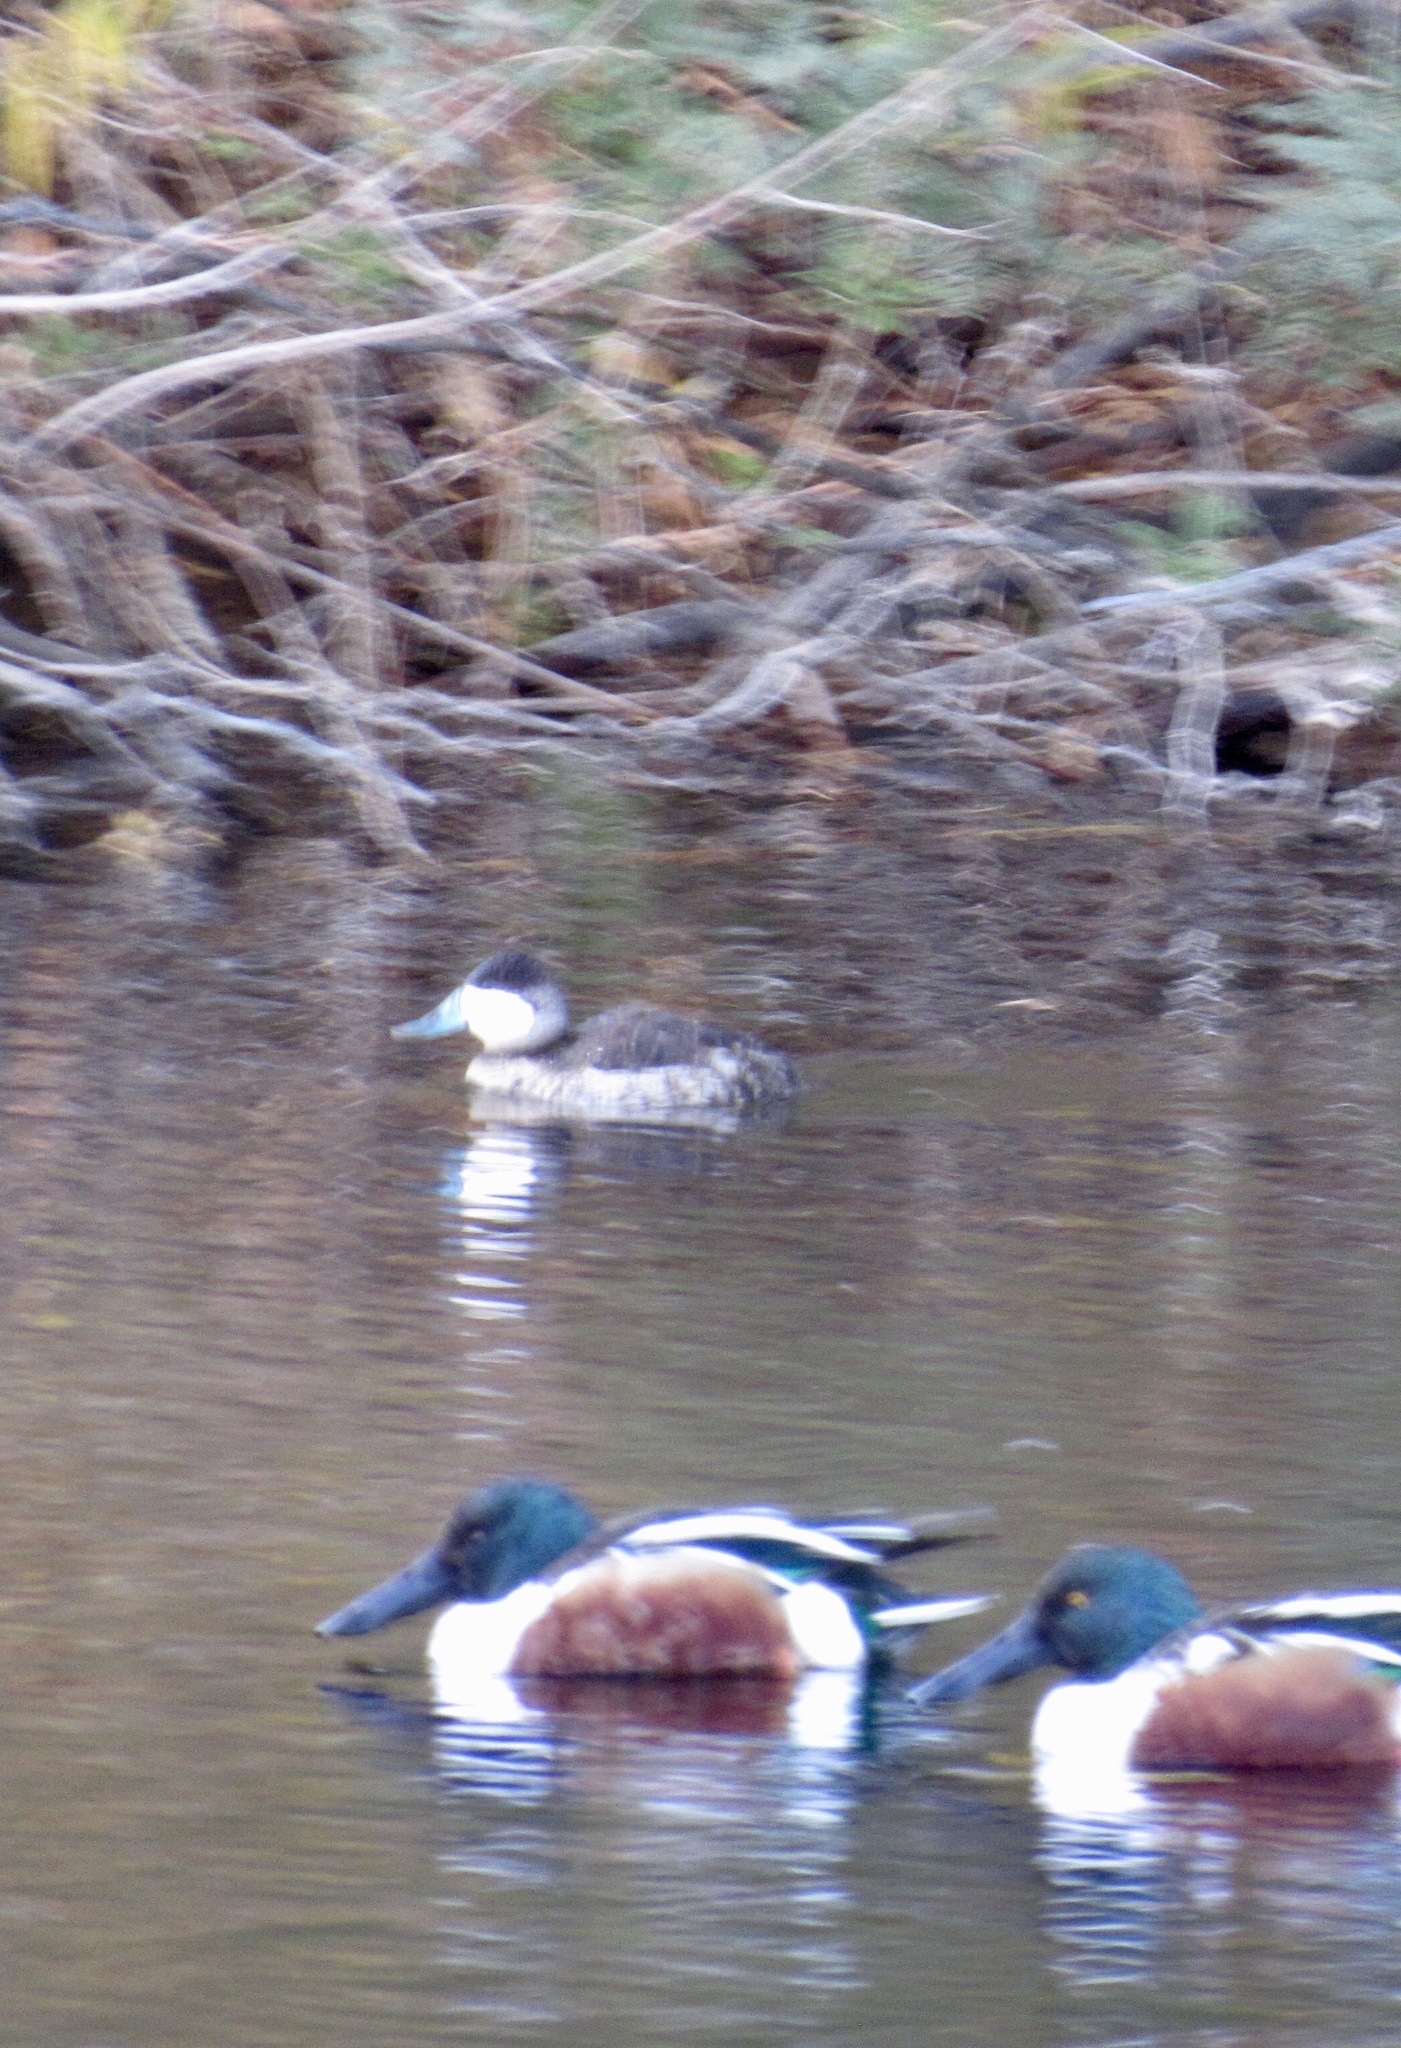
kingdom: Animalia
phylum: Chordata
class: Aves
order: Anseriformes
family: Anatidae
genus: Oxyura
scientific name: Oxyura jamaicensis
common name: Ruddy duck
